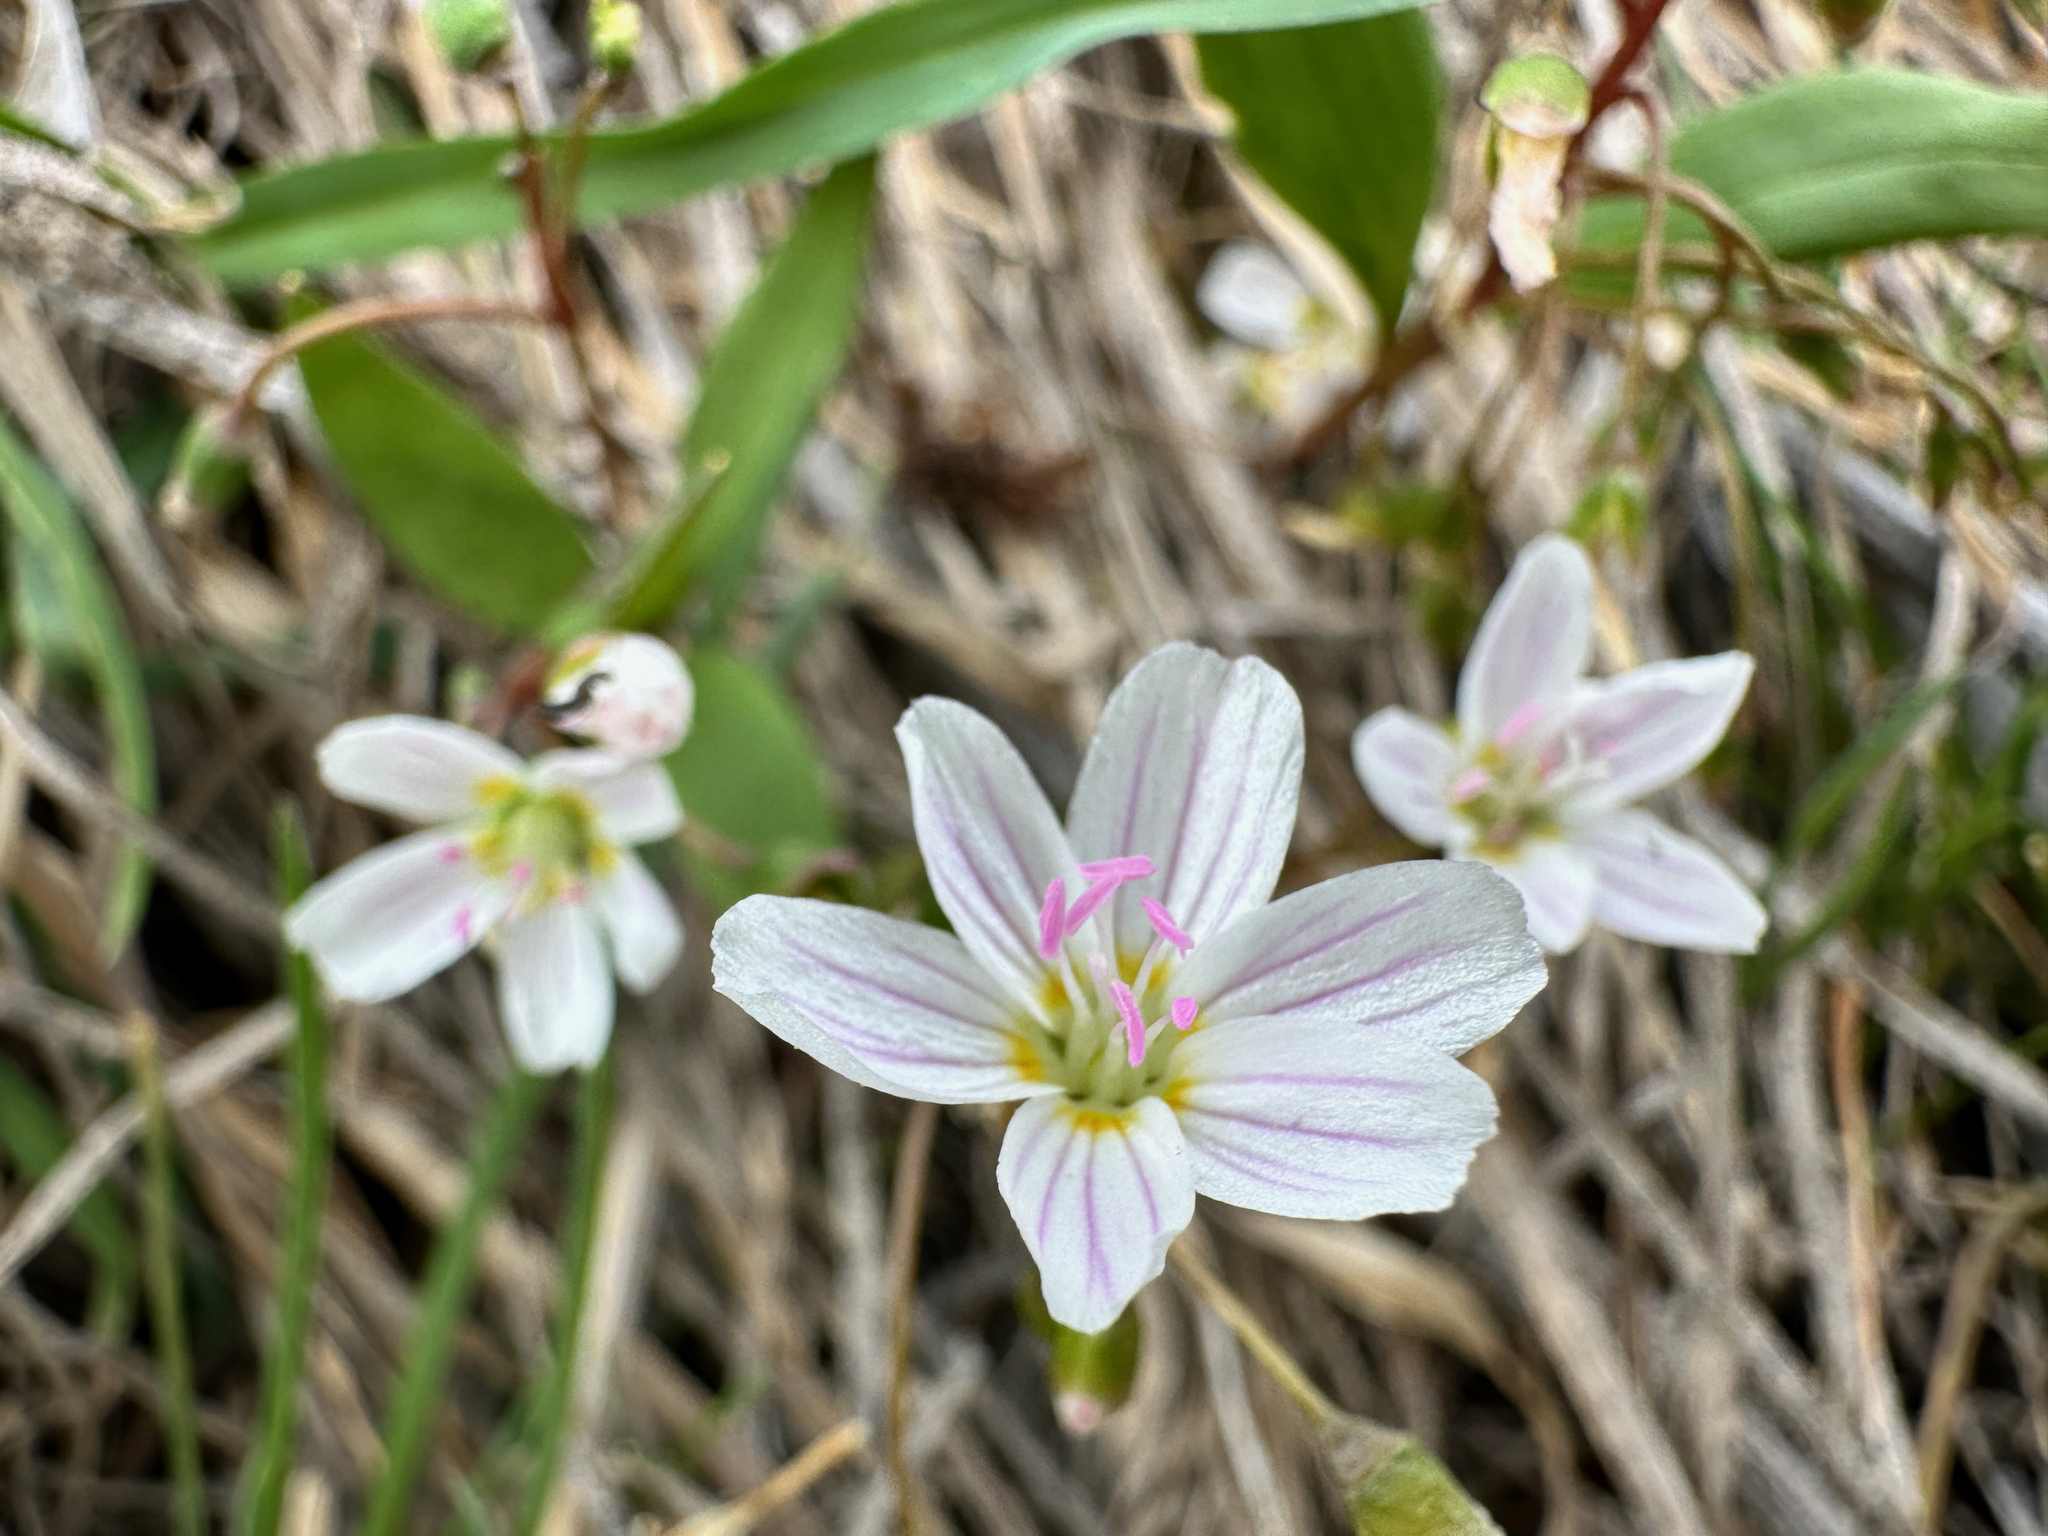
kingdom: Plantae
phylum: Tracheophyta
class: Magnoliopsida
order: Caryophyllales
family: Montiaceae
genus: Claytonia
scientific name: Claytonia lanceolata
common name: Western spring-beauty
